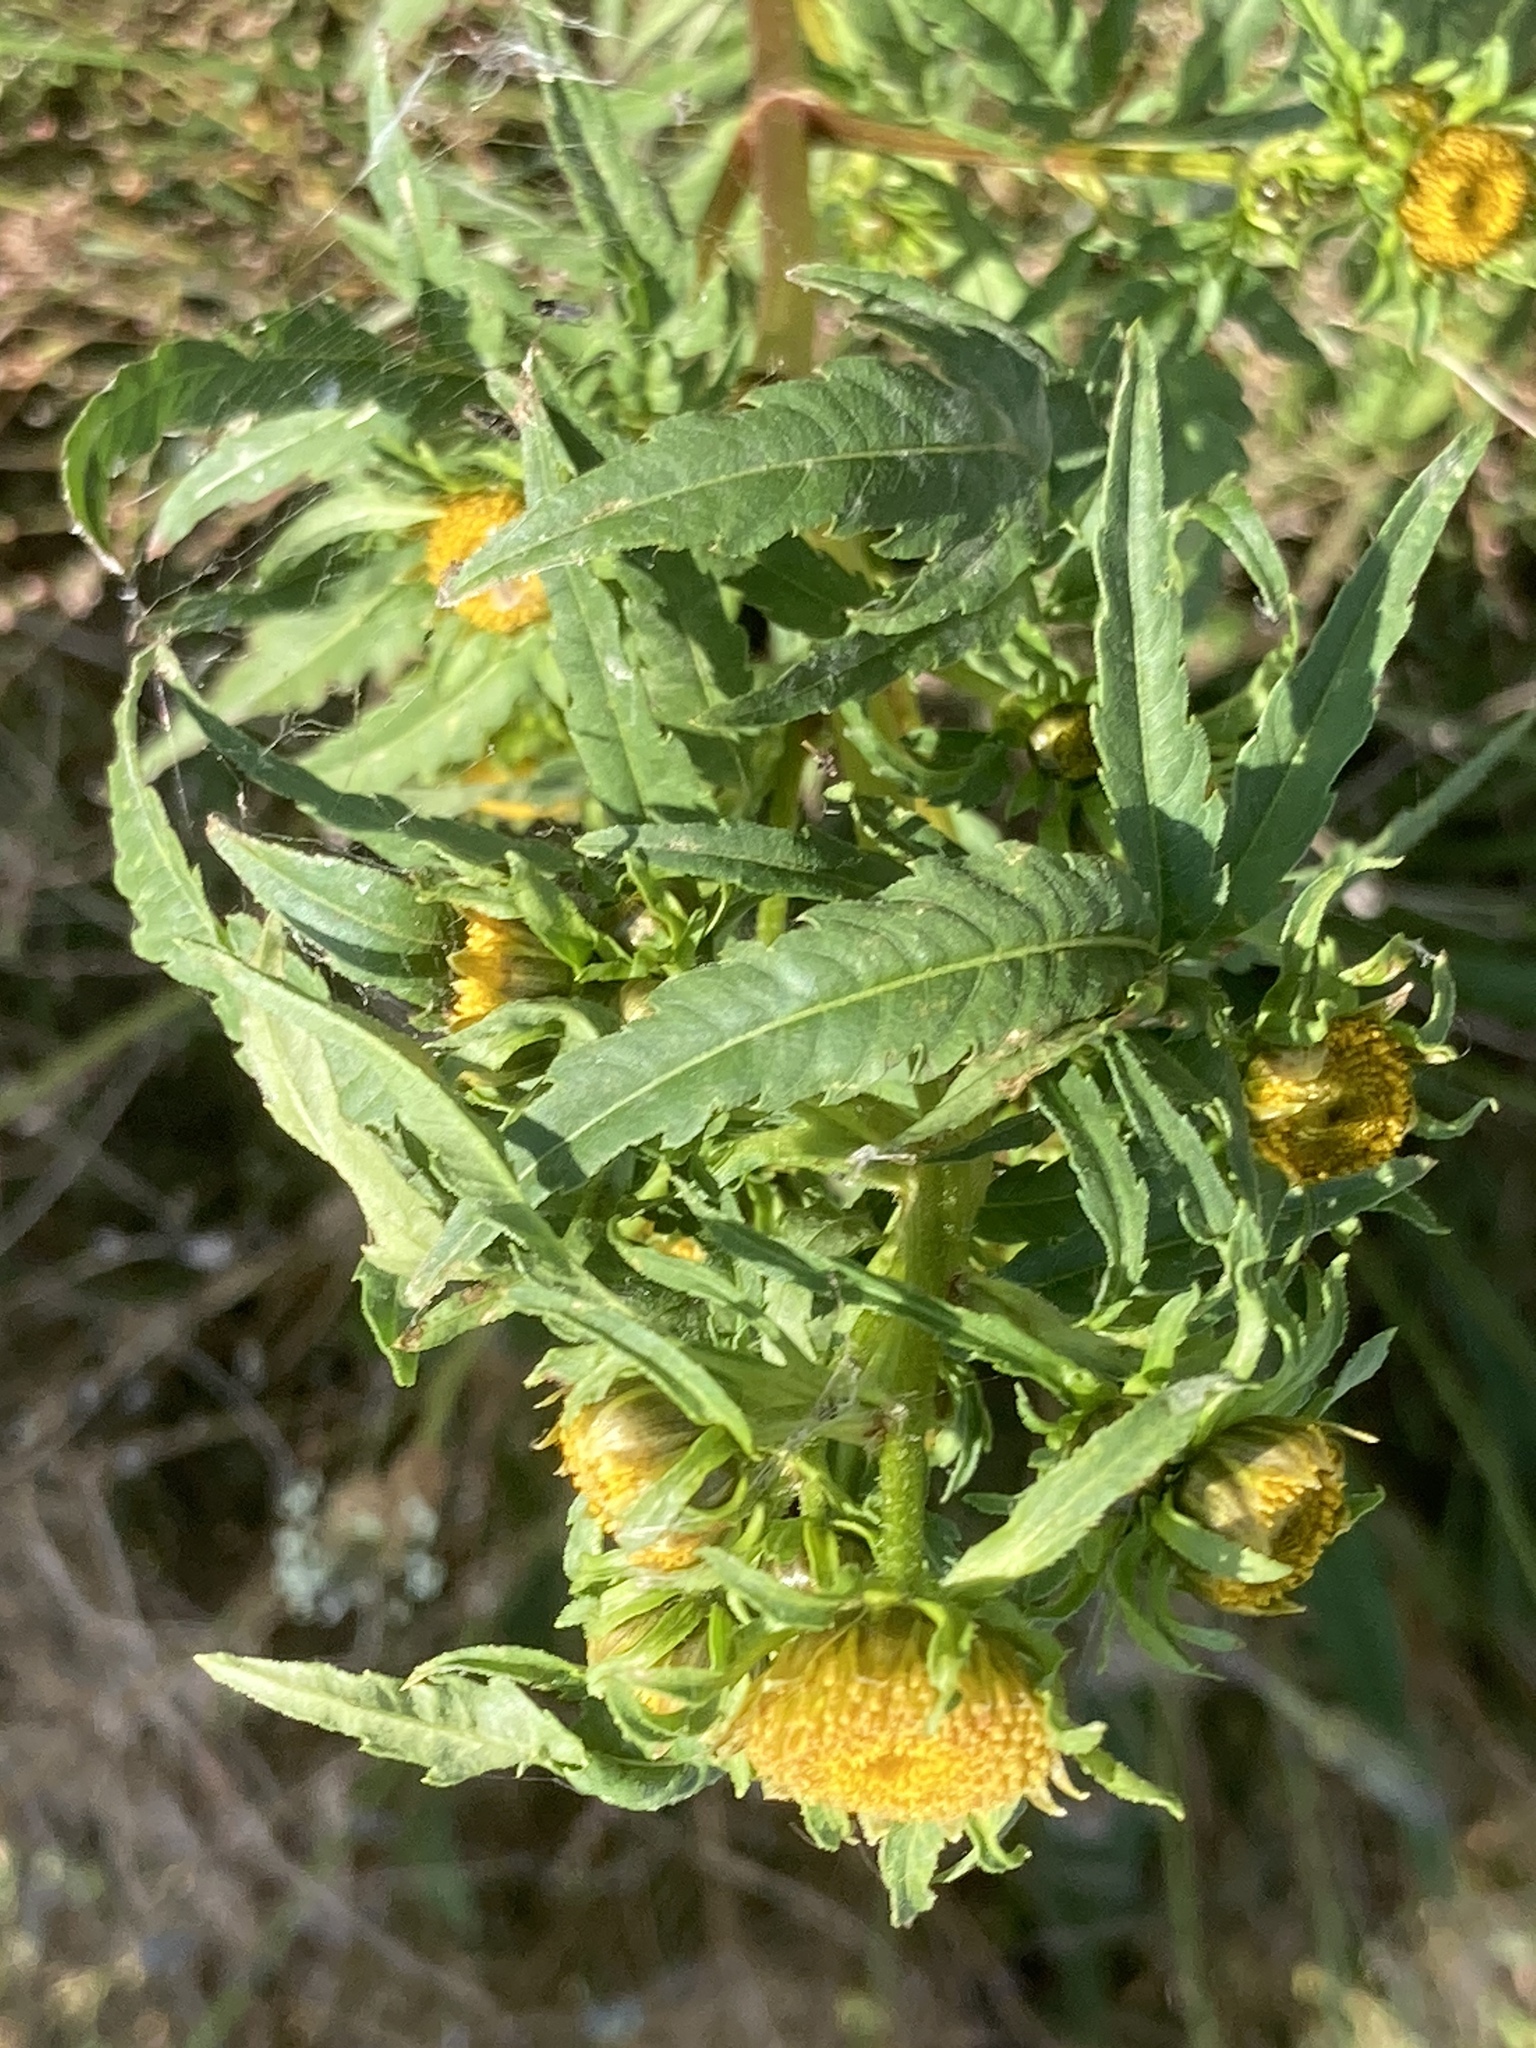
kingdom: Plantae
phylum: Tracheophyta
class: Magnoliopsida
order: Asterales
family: Asteraceae
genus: Bidens
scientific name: Bidens cernua
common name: Nodding bur-marigold
